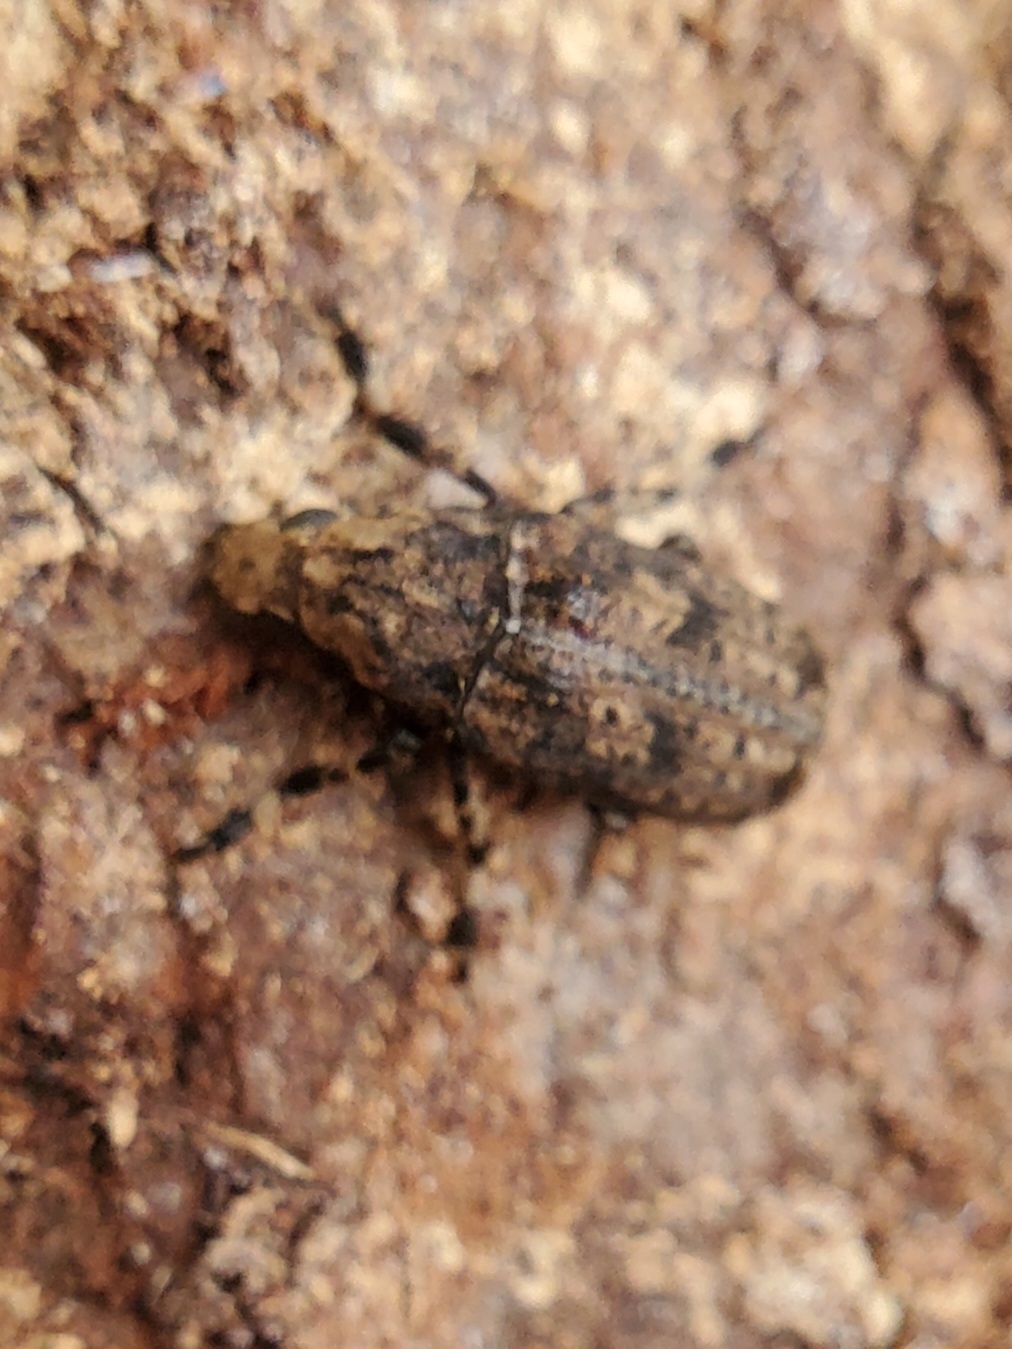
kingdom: Animalia
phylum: Arthropoda
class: Insecta
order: Coleoptera
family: Anthribidae
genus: Euparius
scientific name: Euparius marmoreus
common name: Marbled fungus weevil
